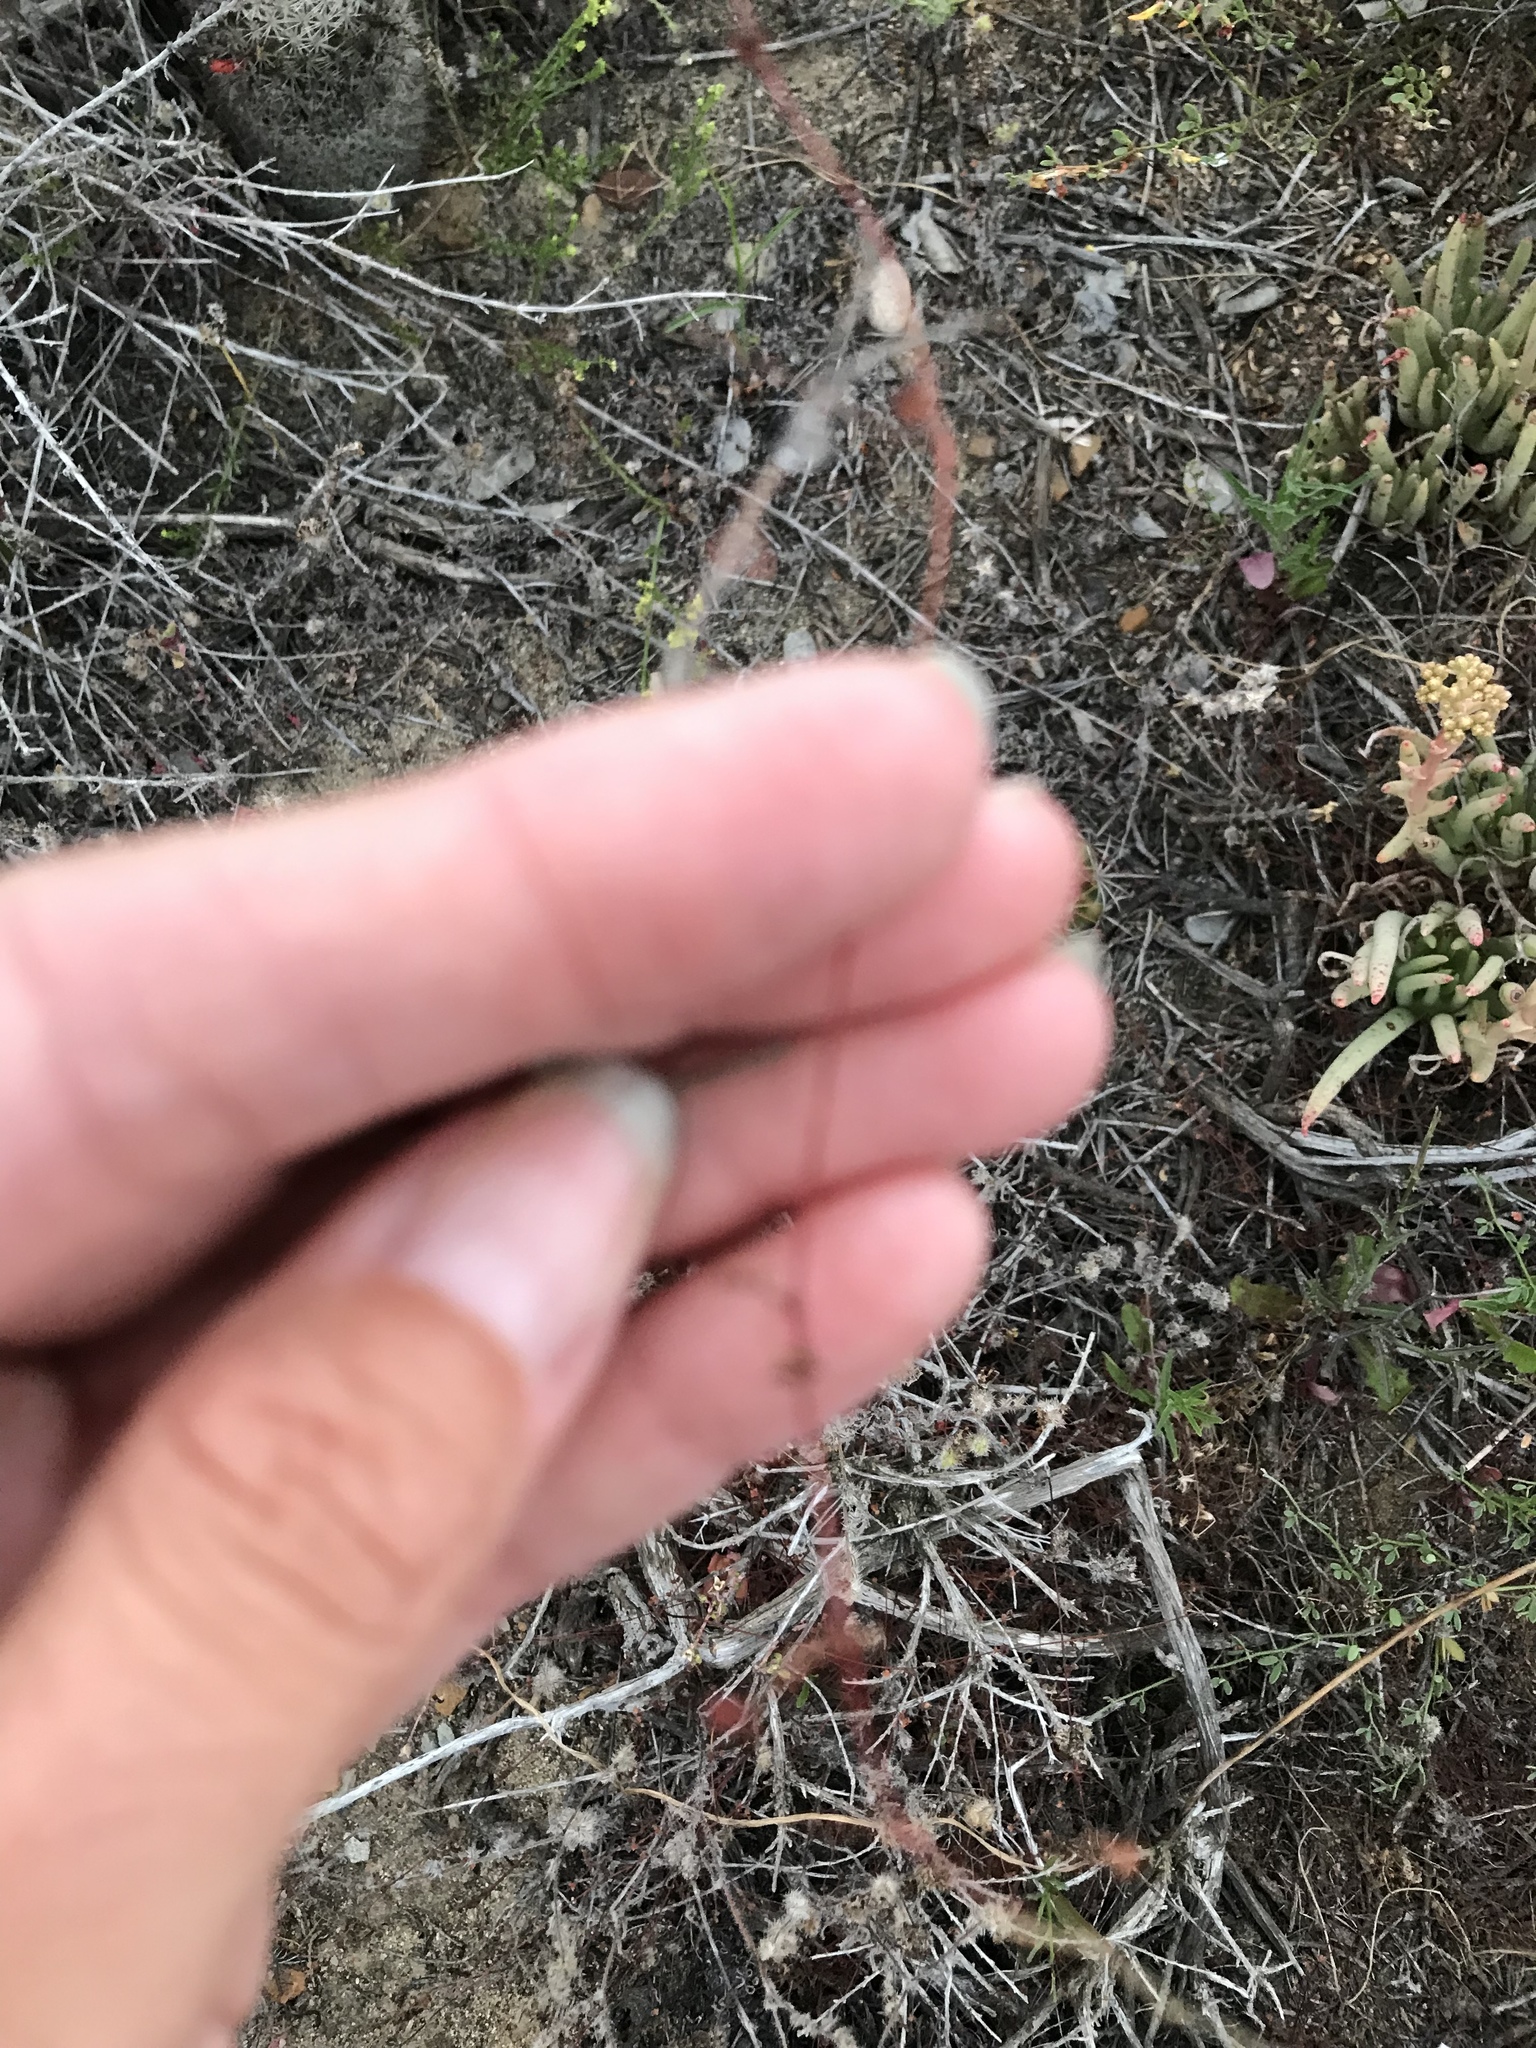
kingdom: Plantae
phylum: Tracheophyta
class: Magnoliopsida
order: Caryophyllales
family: Polygonaceae
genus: Pterostegia
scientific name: Pterostegia drymarioides
